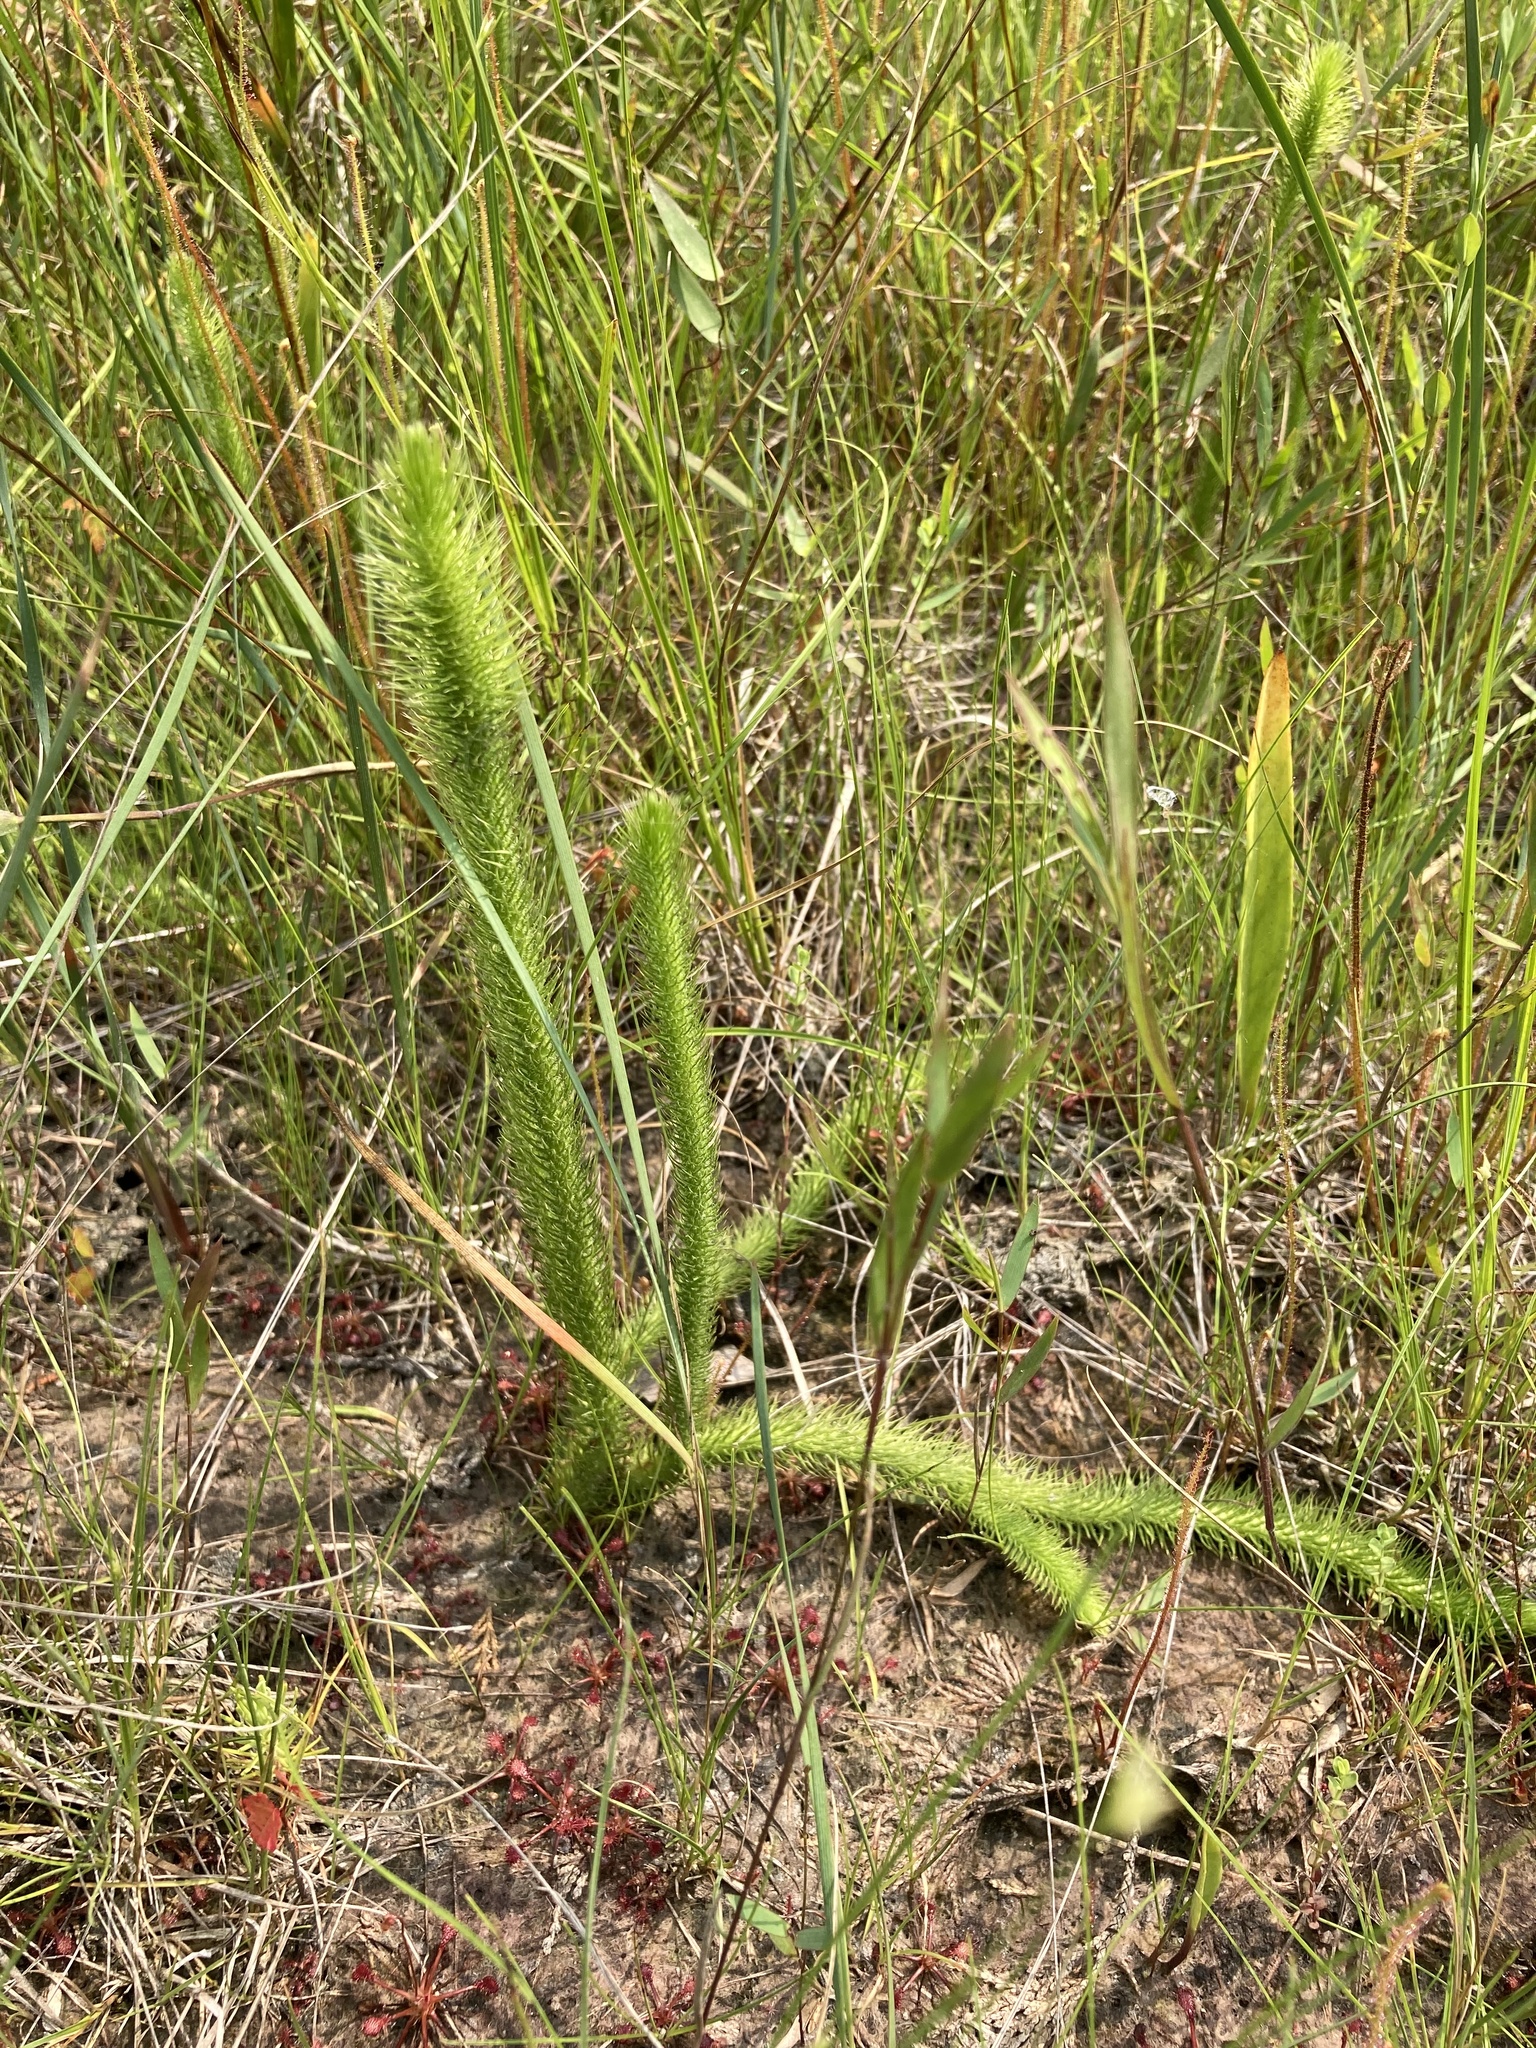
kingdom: Plantae
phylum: Tracheophyta
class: Lycopodiopsida
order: Lycopodiales
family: Lycopodiaceae
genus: Lycopodiella
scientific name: Lycopodiella alopecuroides
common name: Foxtail clubmoss
